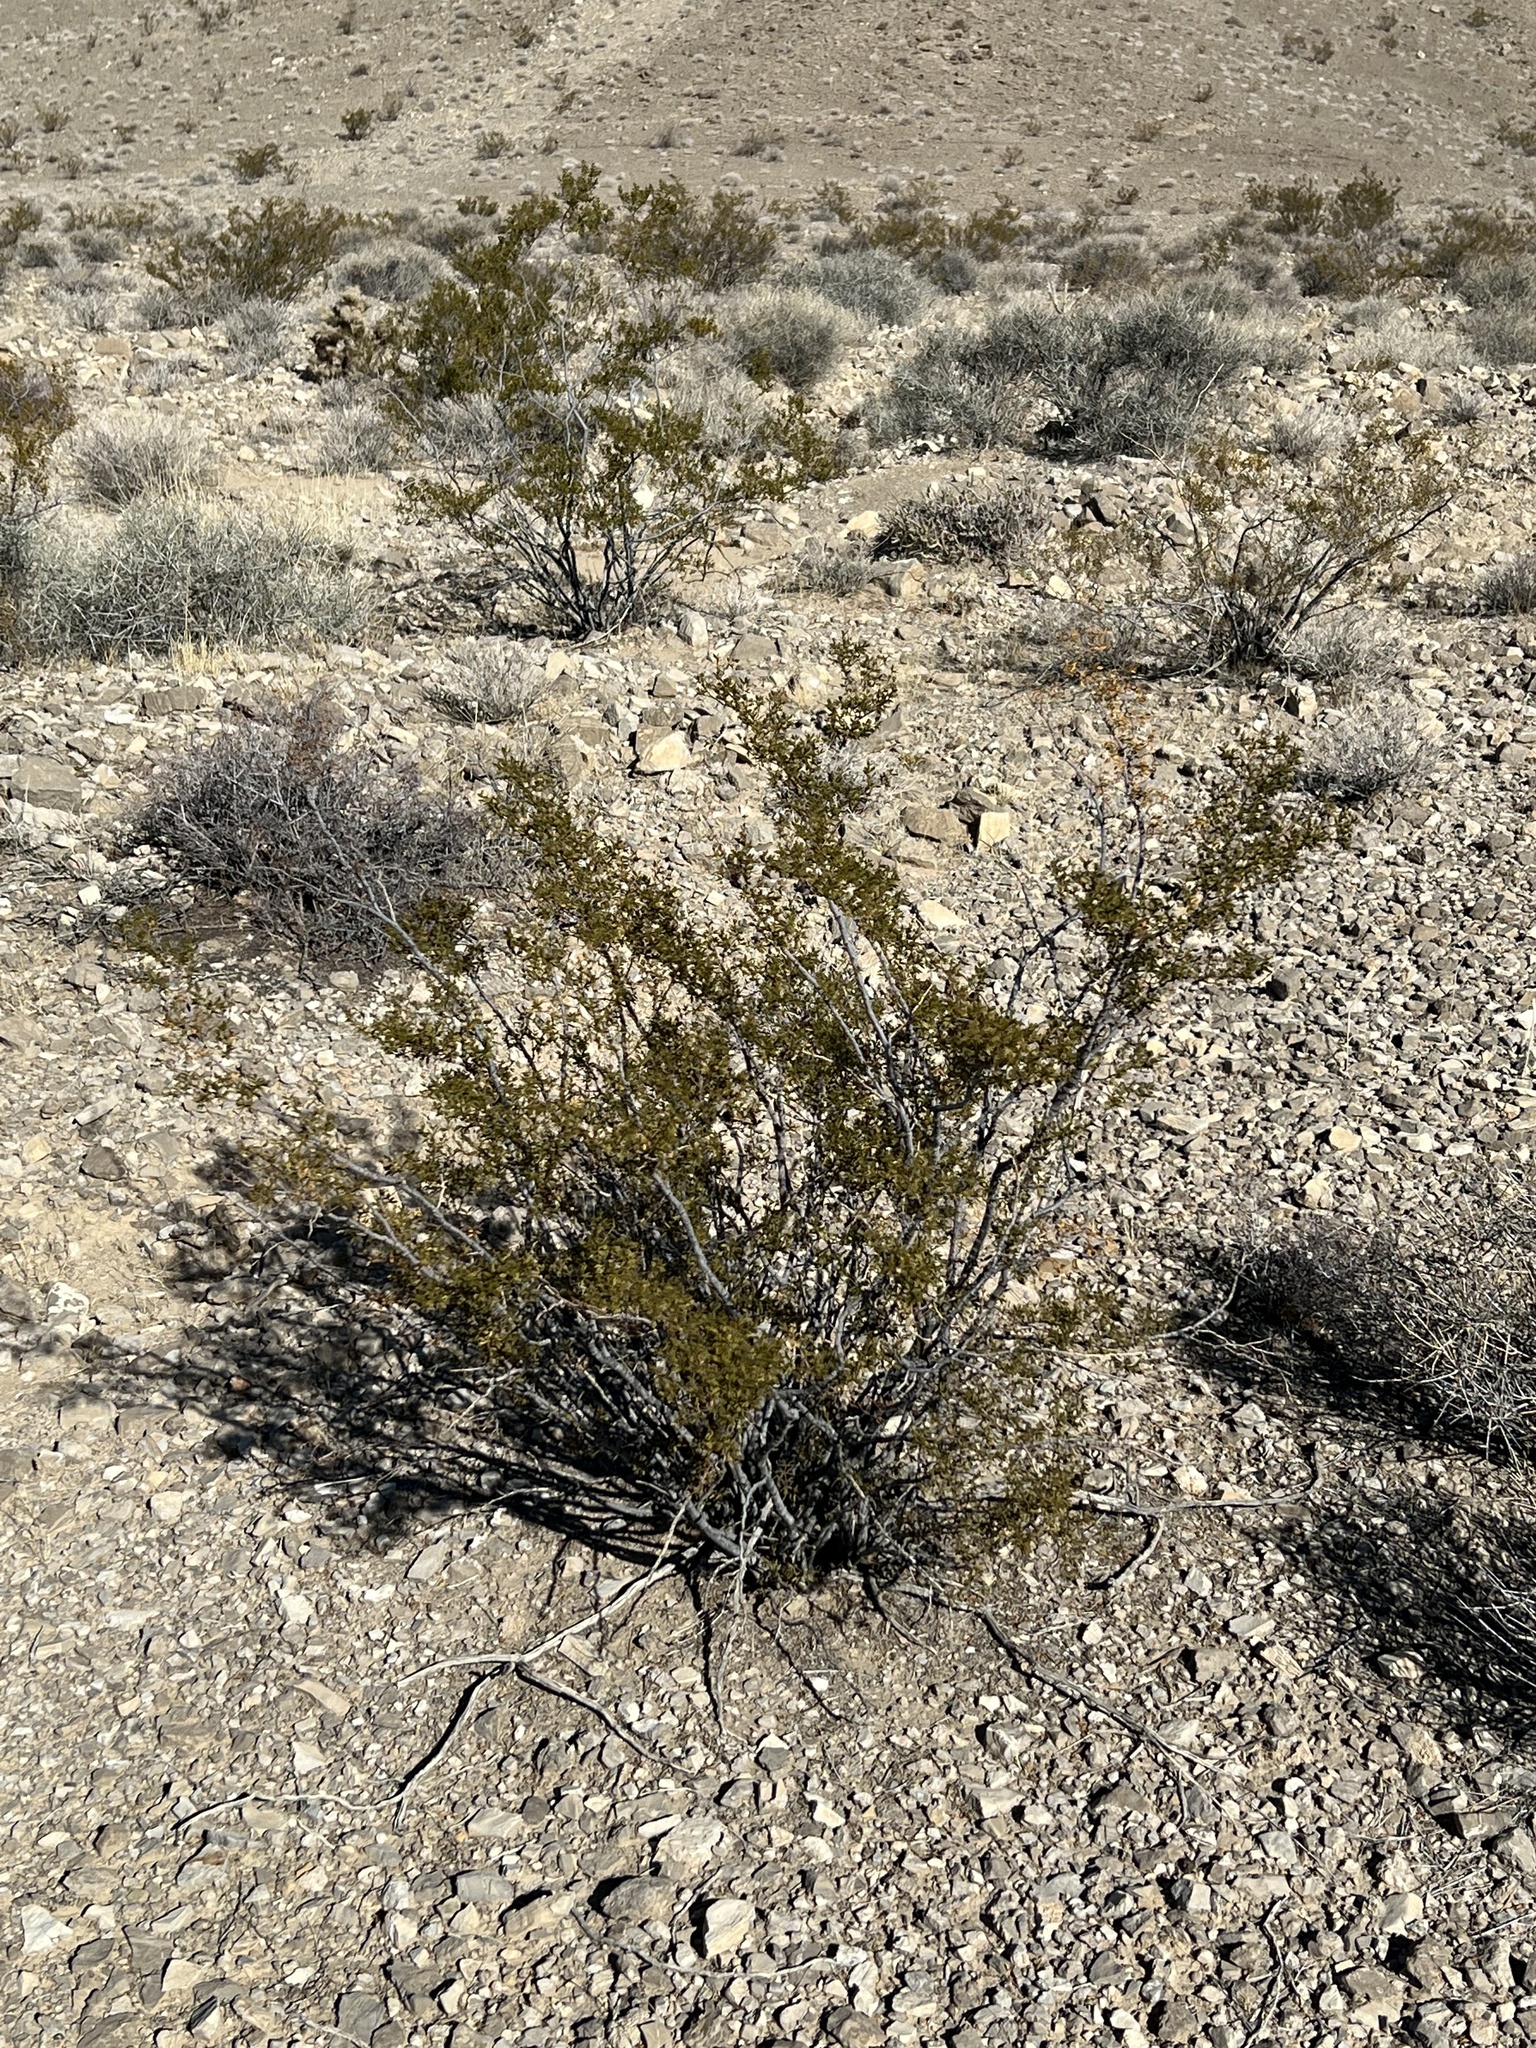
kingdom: Plantae
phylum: Tracheophyta
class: Magnoliopsida
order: Zygophyllales
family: Zygophyllaceae
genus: Larrea
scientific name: Larrea tridentata
